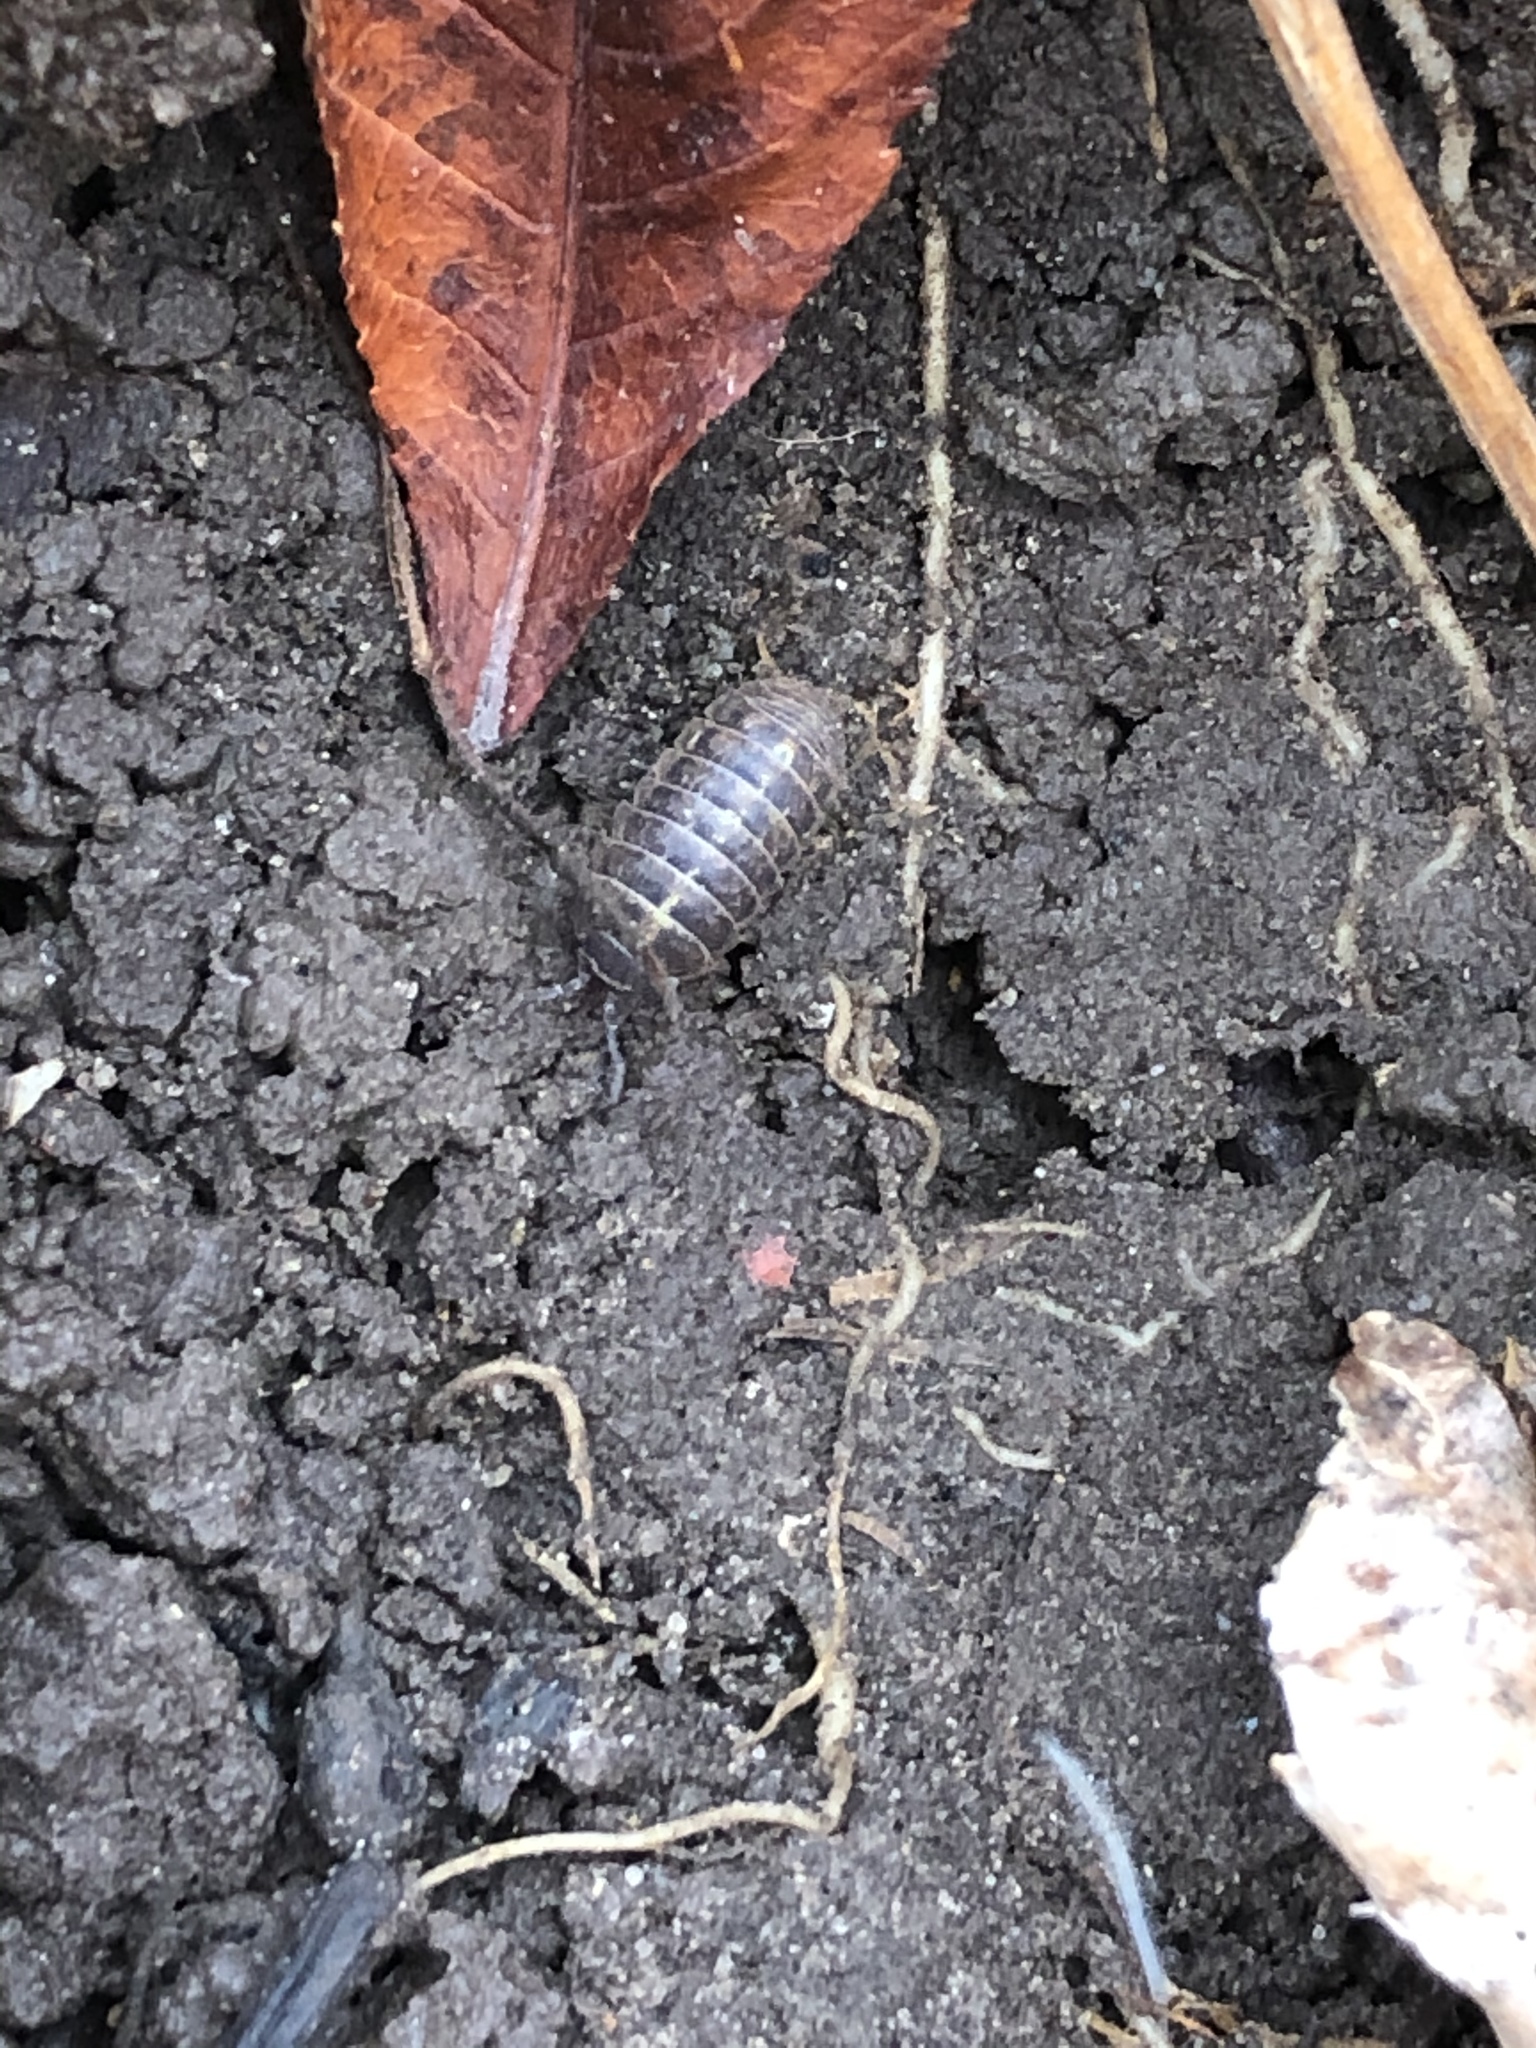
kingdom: Animalia
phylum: Arthropoda
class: Malacostraca
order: Isopoda
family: Armadillidiidae
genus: Armadillidium
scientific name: Armadillidium vulgare
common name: Common pill woodlouse
